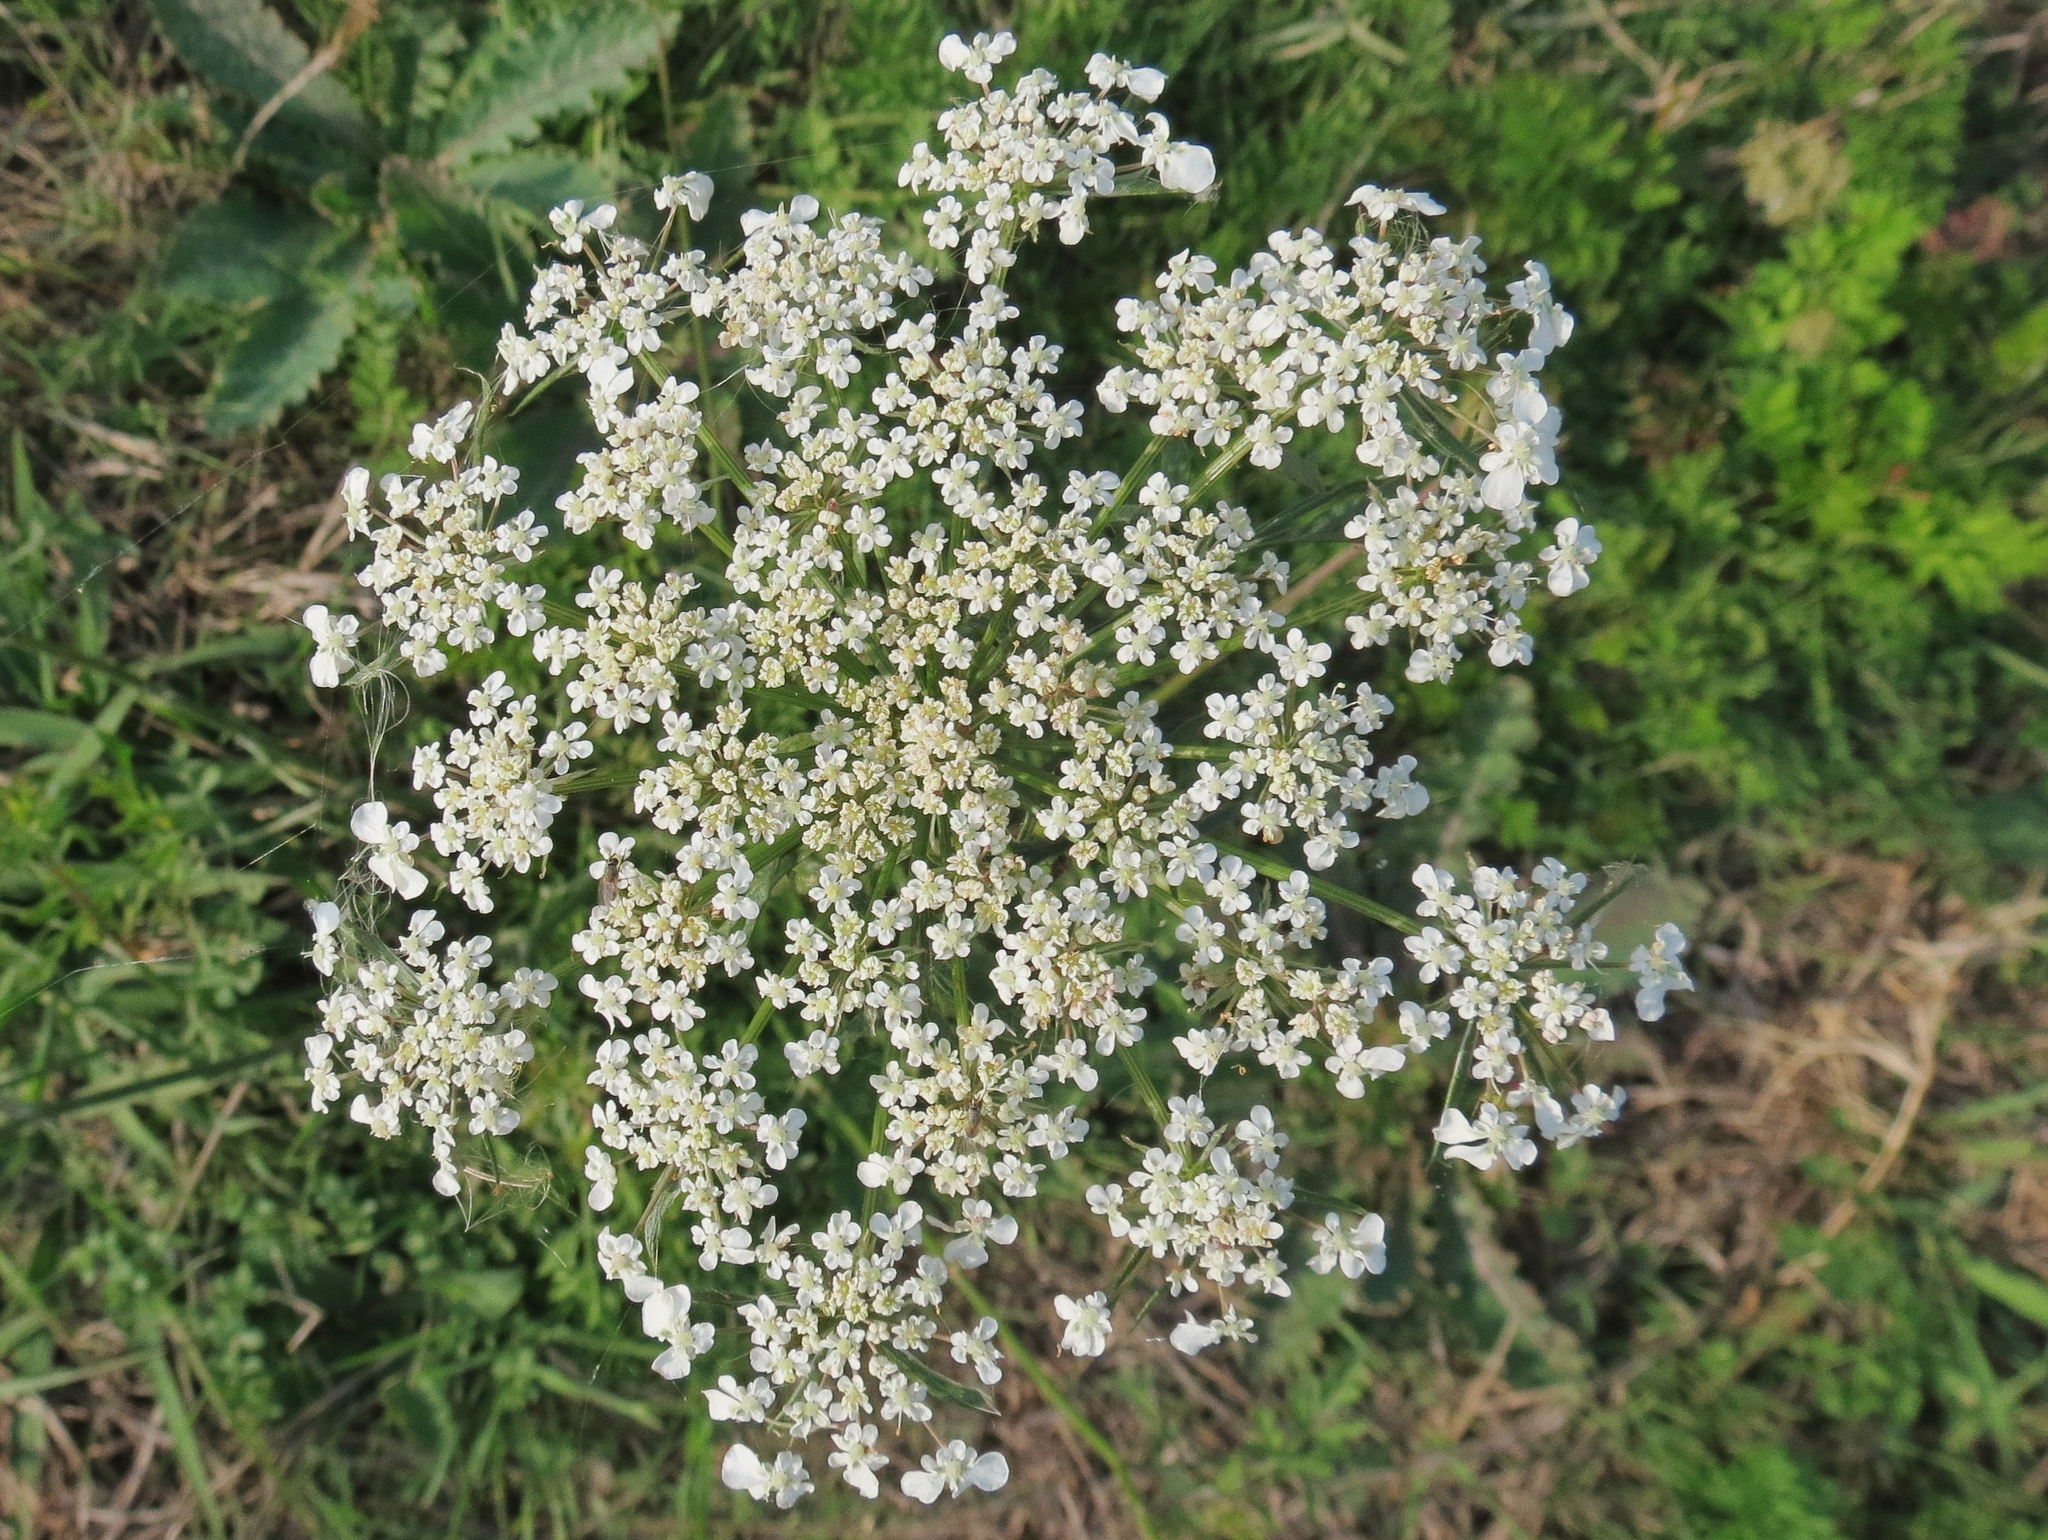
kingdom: Plantae
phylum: Tracheophyta
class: Magnoliopsida
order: Apiales
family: Apiaceae
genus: Daucus
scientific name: Daucus carota
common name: Wild carrot
